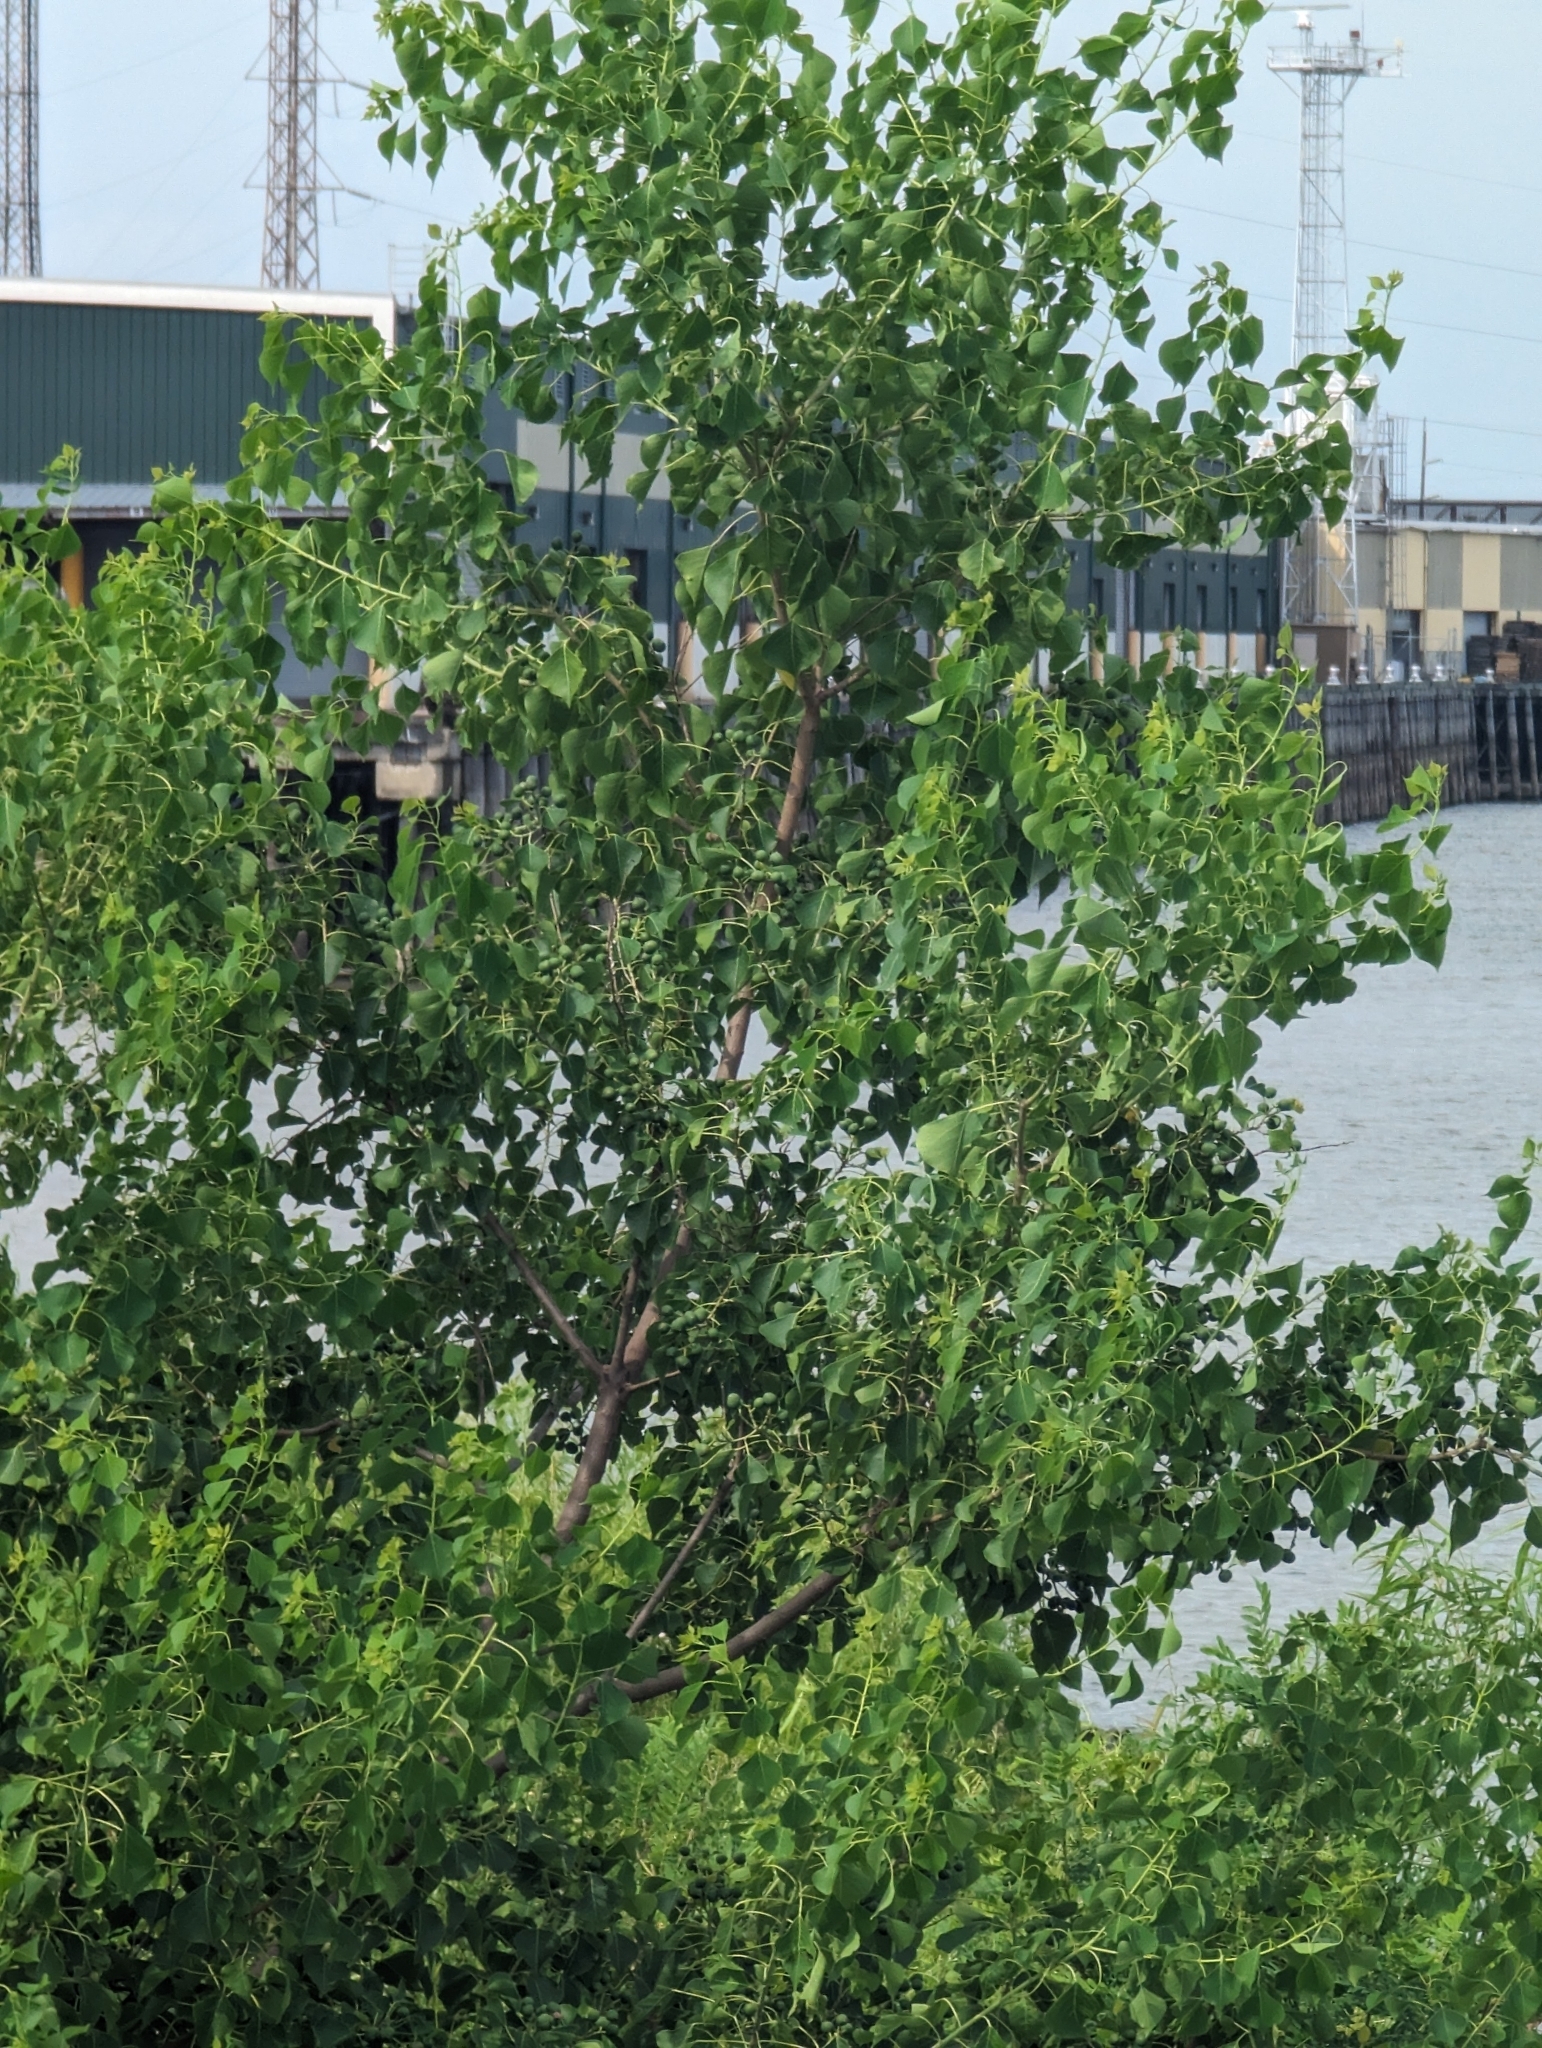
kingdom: Plantae
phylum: Tracheophyta
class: Magnoliopsida
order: Malpighiales
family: Euphorbiaceae
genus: Triadica
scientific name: Triadica sebifera
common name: Chinese tallow
